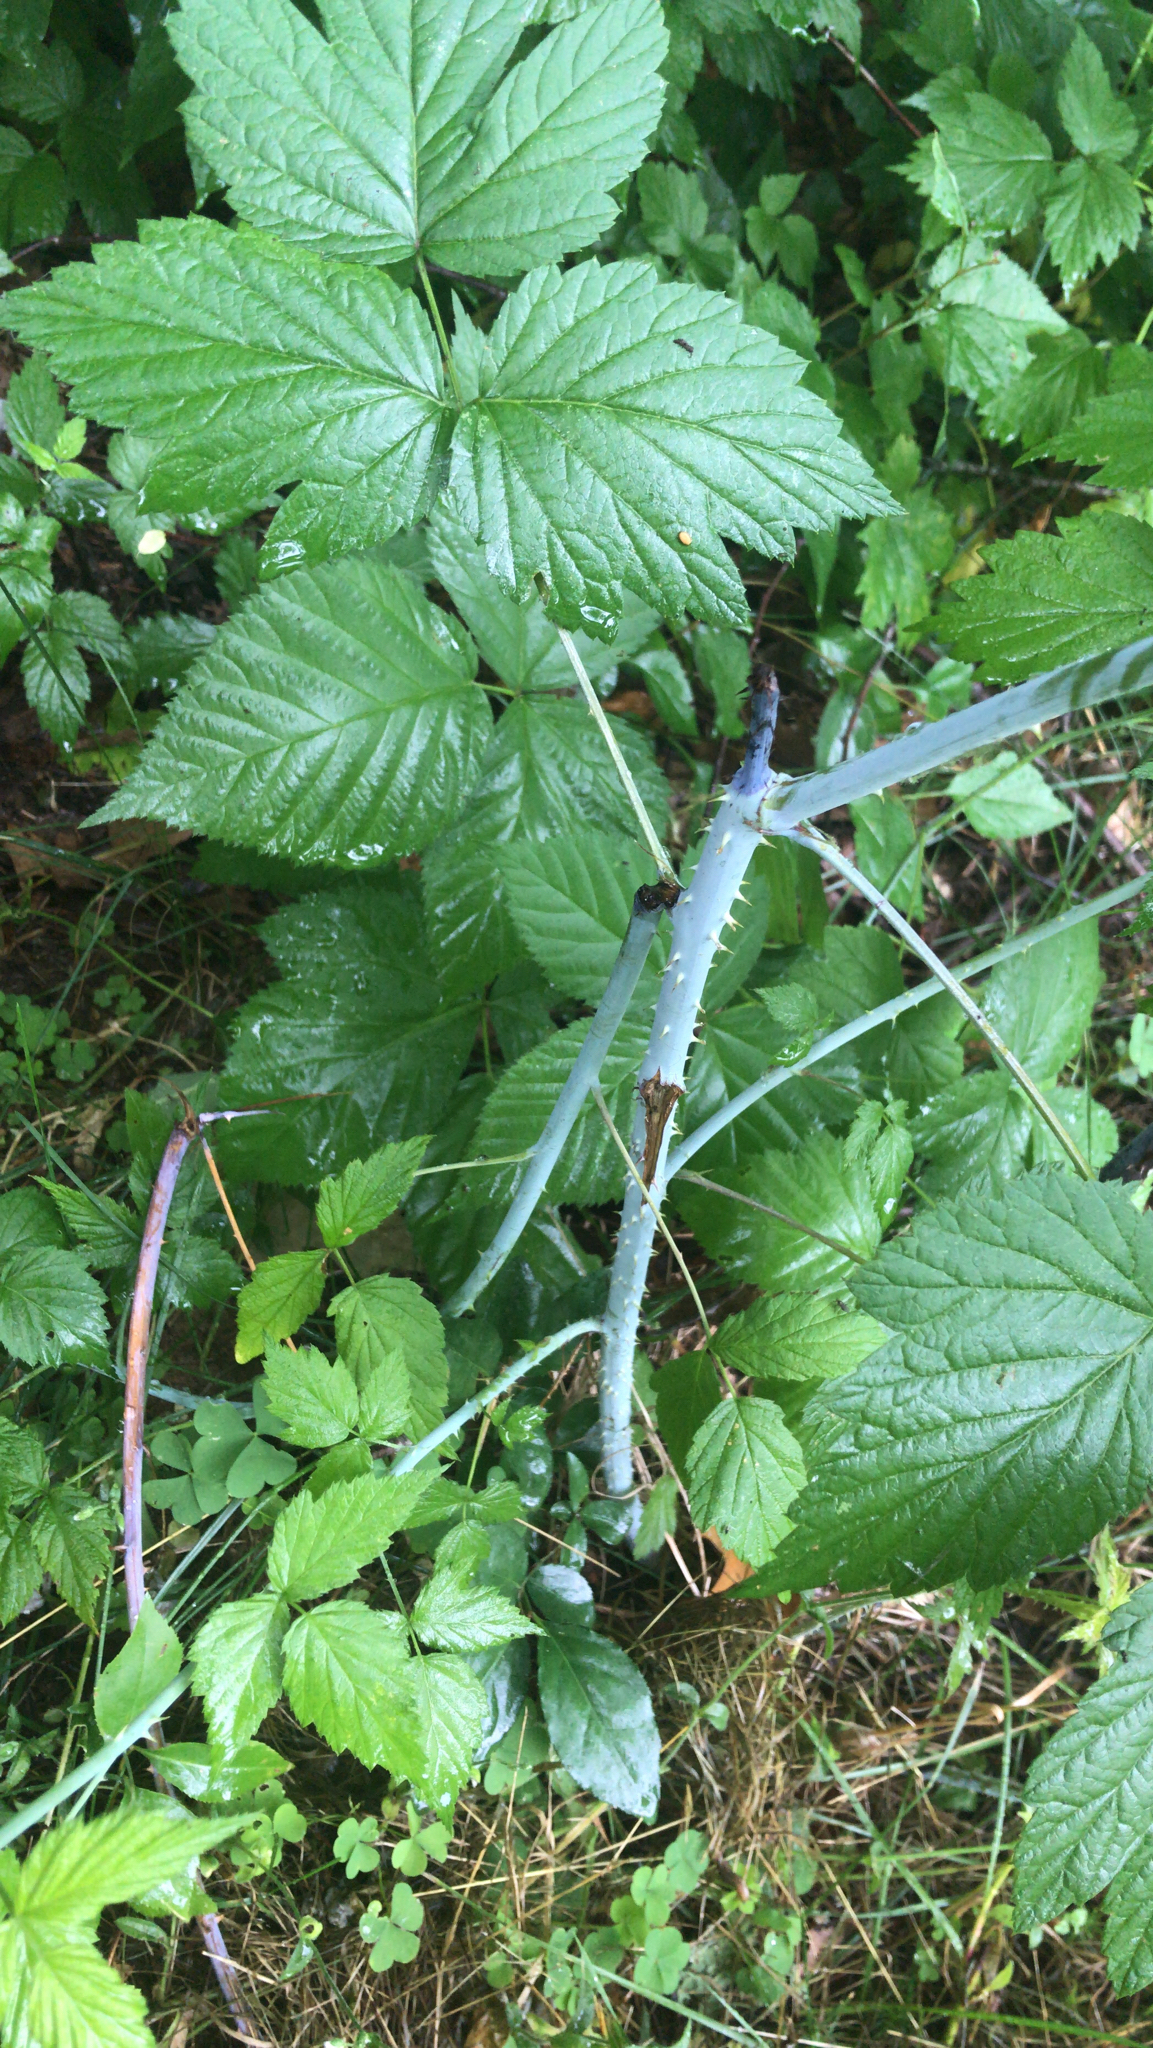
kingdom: Plantae
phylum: Tracheophyta
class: Magnoliopsida
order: Rosales
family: Rosaceae
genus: Rubus
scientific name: Rubus occidentalis
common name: Black raspberry
